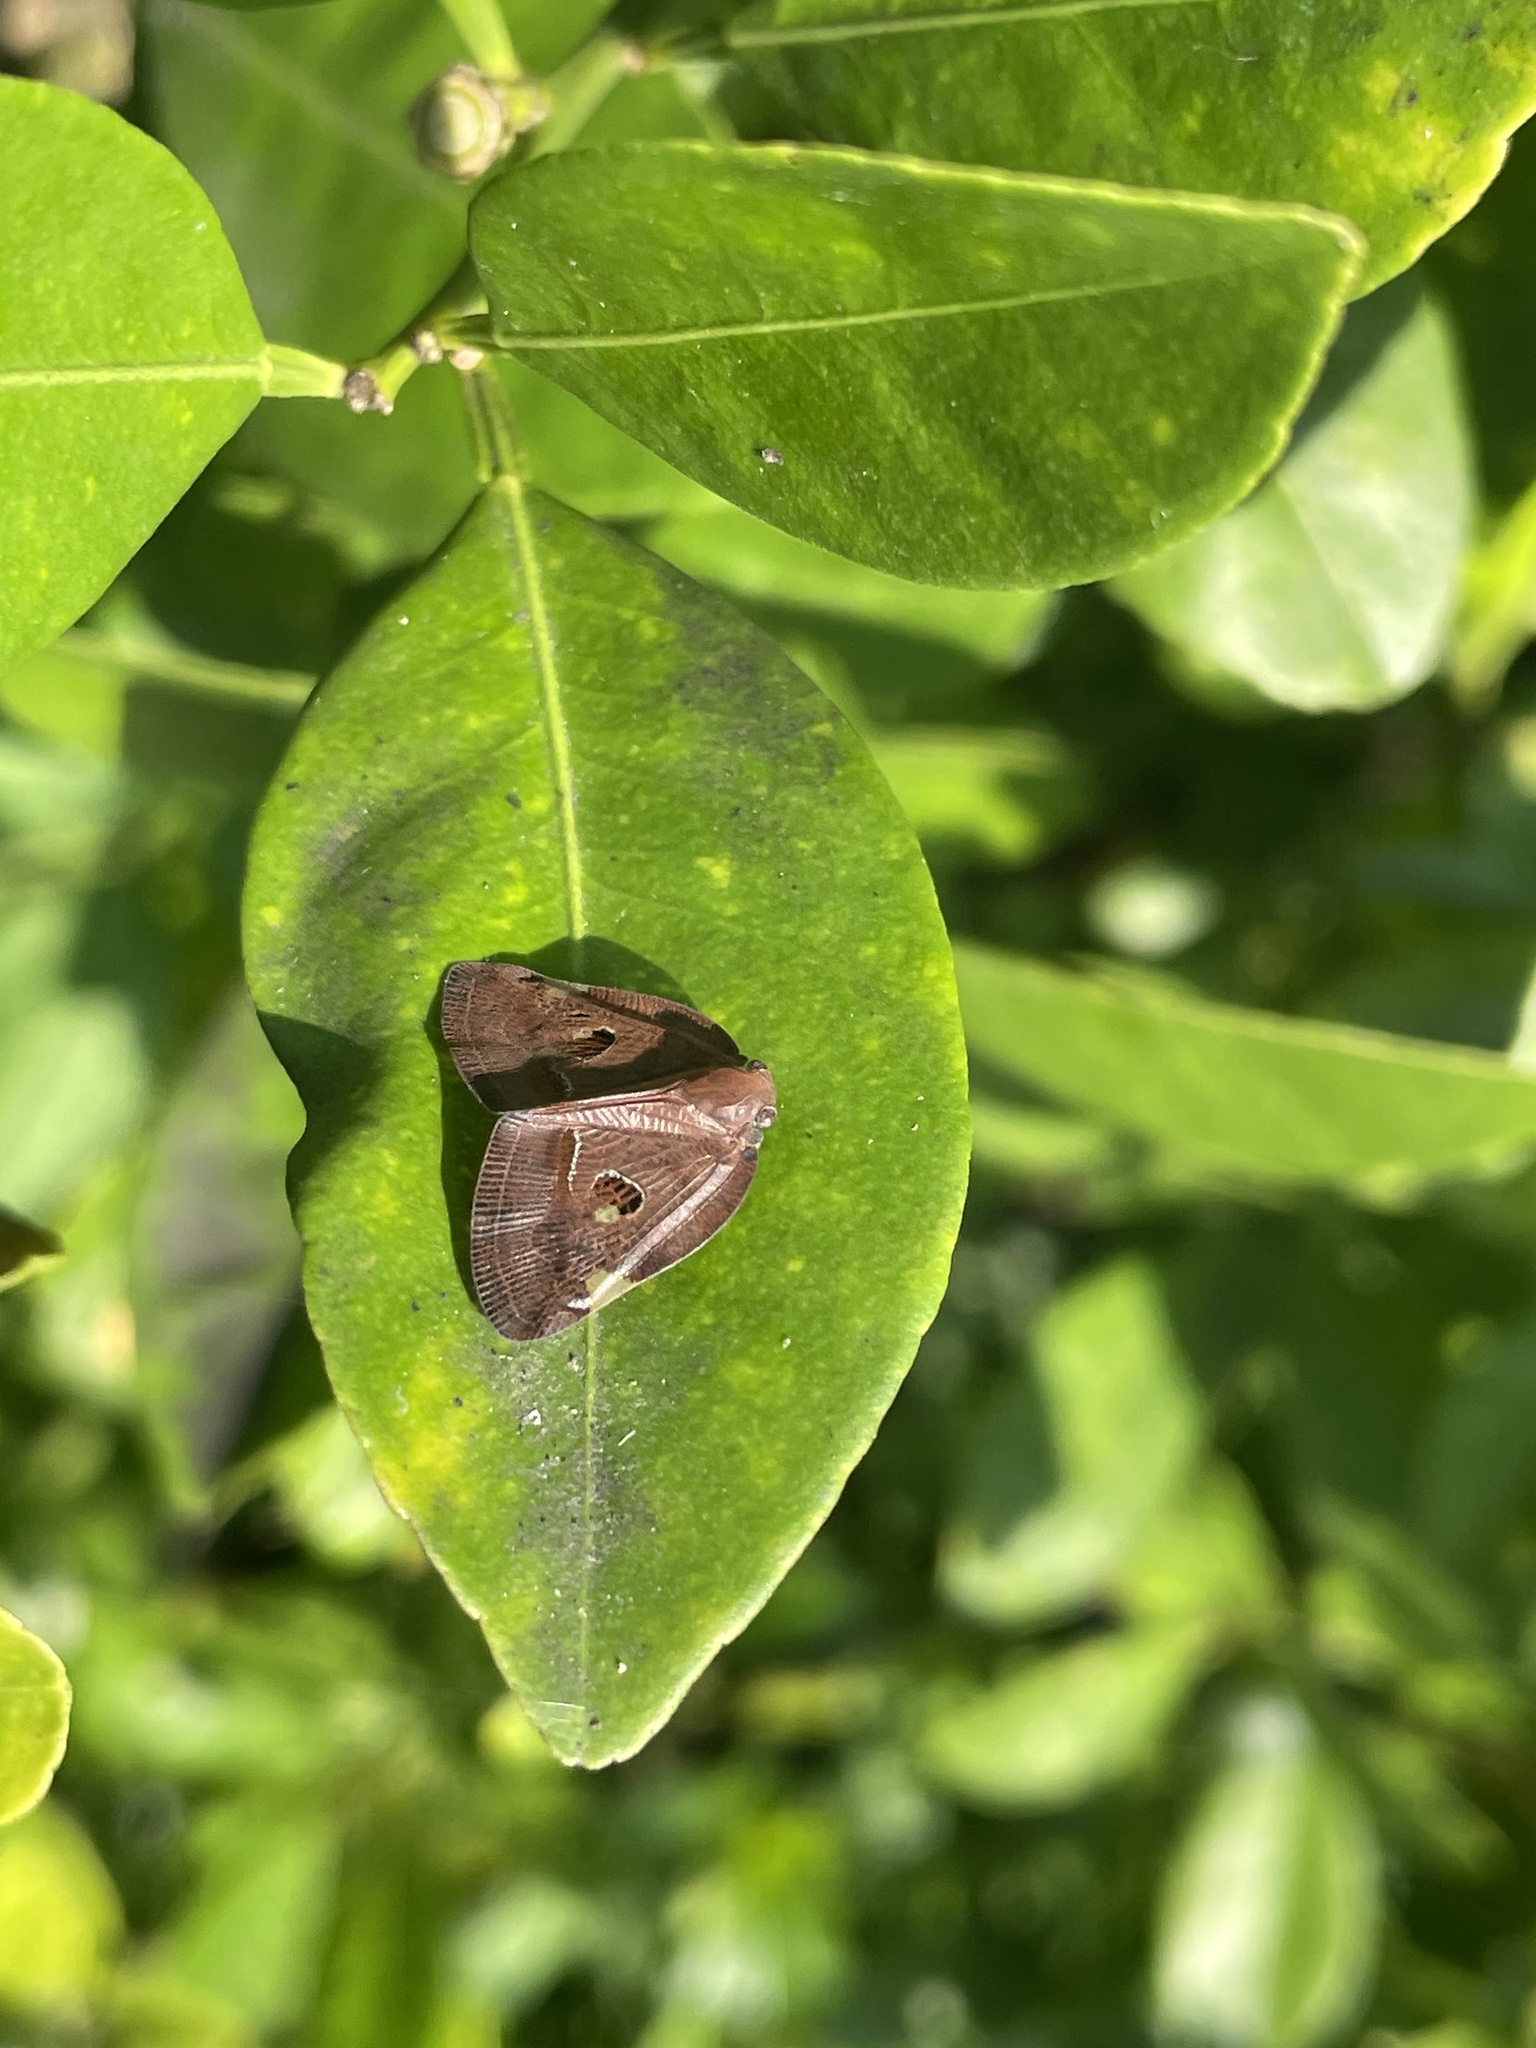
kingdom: Animalia
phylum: Arthropoda
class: Insecta
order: Hemiptera
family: Ricaniidae
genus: Ricania
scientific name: Ricania guttata
